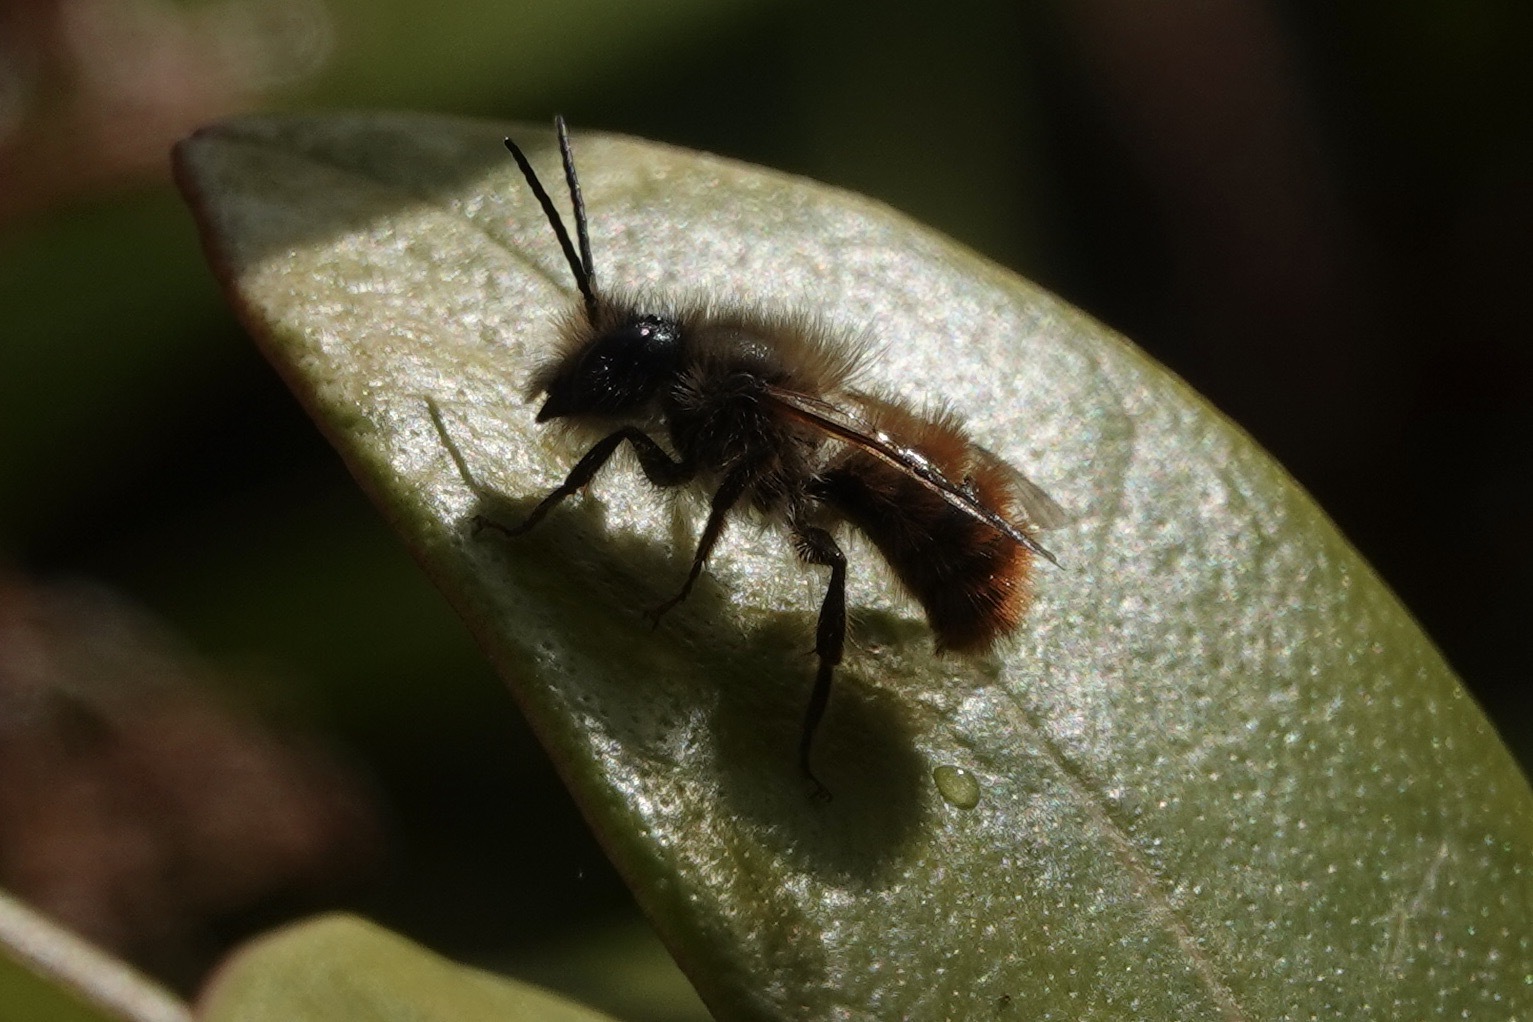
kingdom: Animalia
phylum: Arthropoda
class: Insecta
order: Hymenoptera
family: Megachilidae
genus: Osmia
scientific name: Osmia bicornis
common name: Red mason bee
